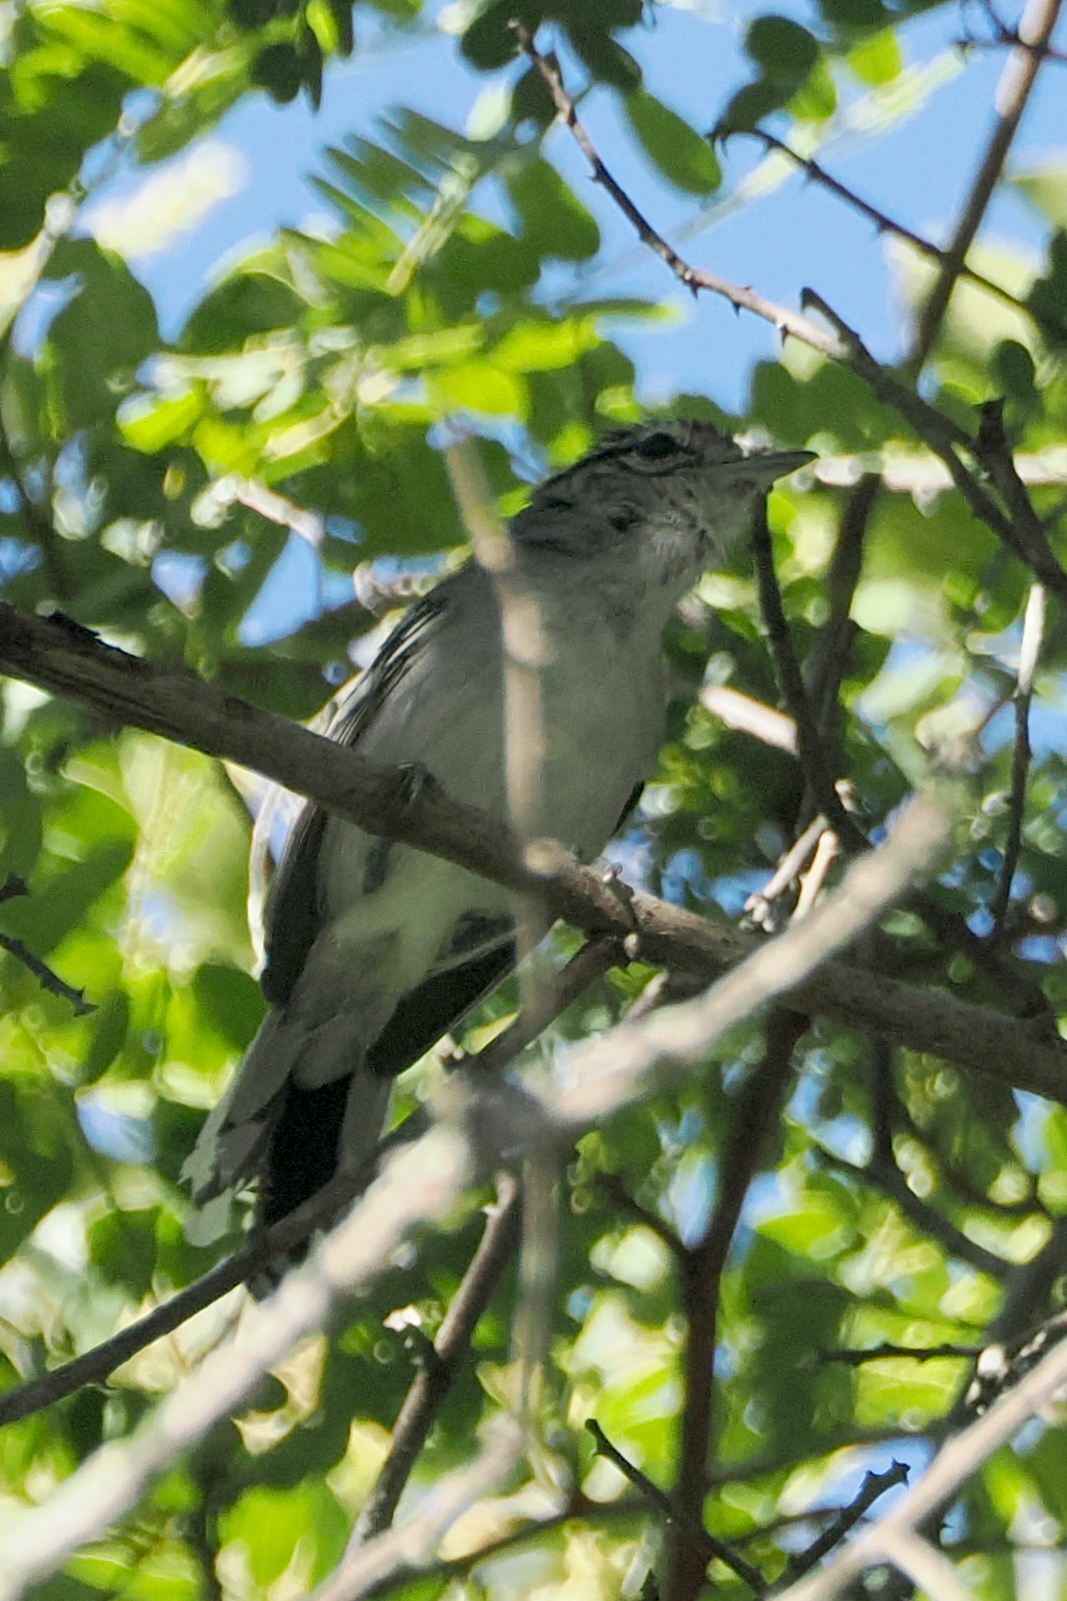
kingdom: Animalia
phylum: Chordata
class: Aves
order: Passeriformes
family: Thamnophilidae
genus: Herpsilochmus
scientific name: Herpsilochmus atricapillus
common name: Black-capped antwren
